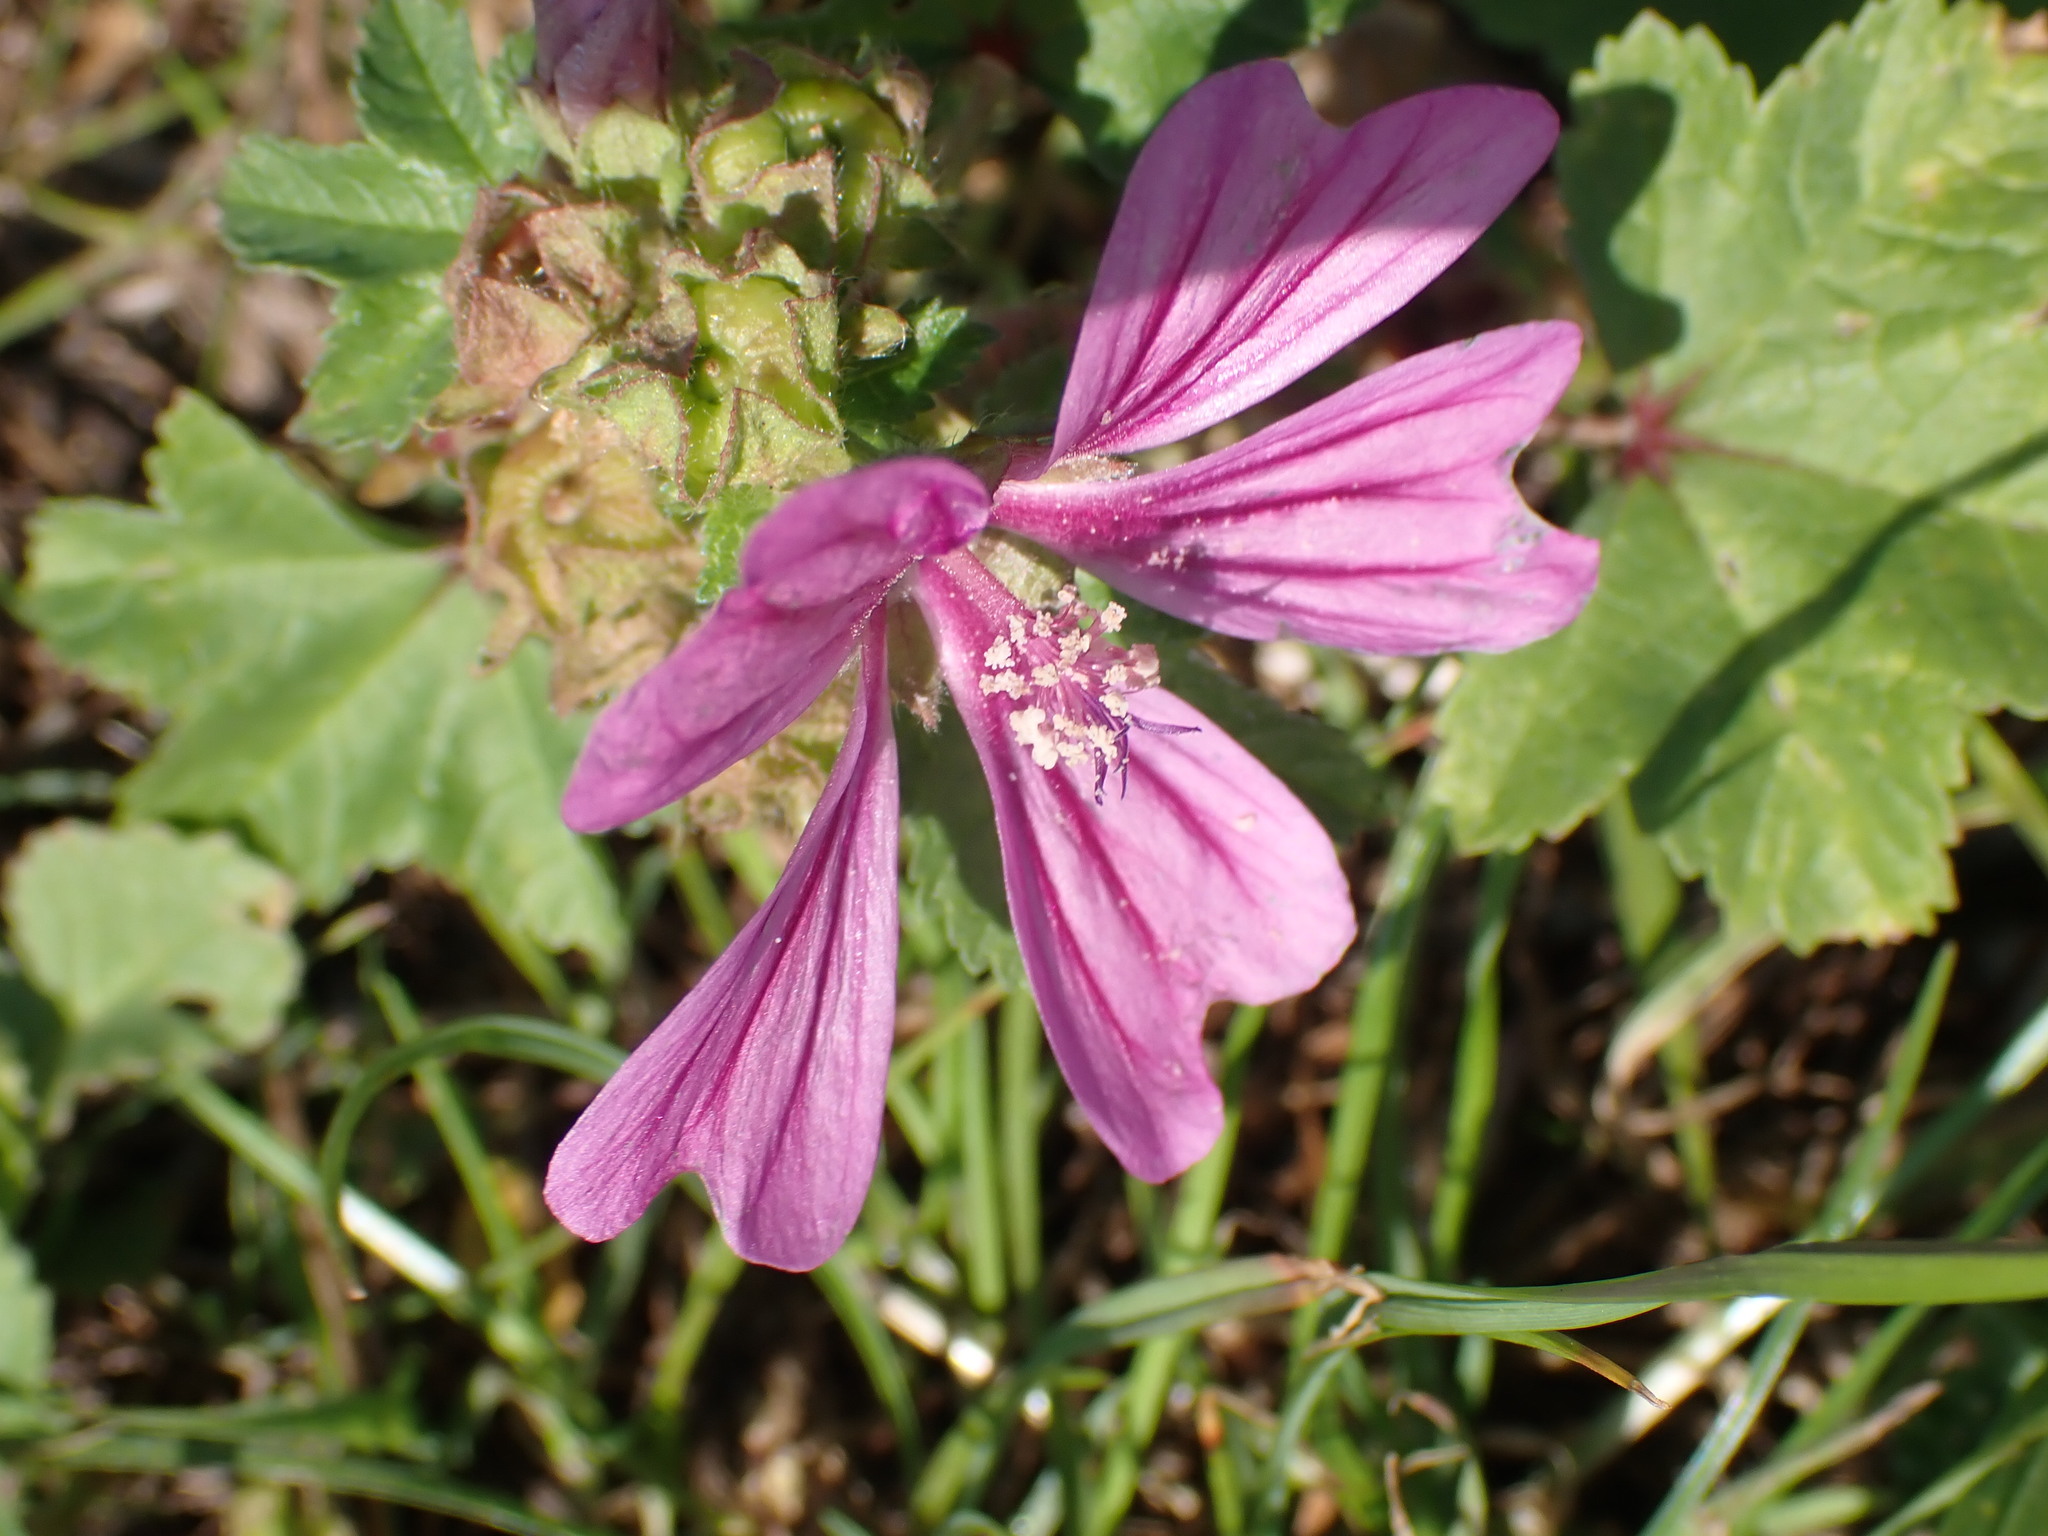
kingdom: Plantae
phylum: Tracheophyta
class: Magnoliopsida
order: Malvales
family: Malvaceae
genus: Malva
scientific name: Malva sylvestris
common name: Common mallow
